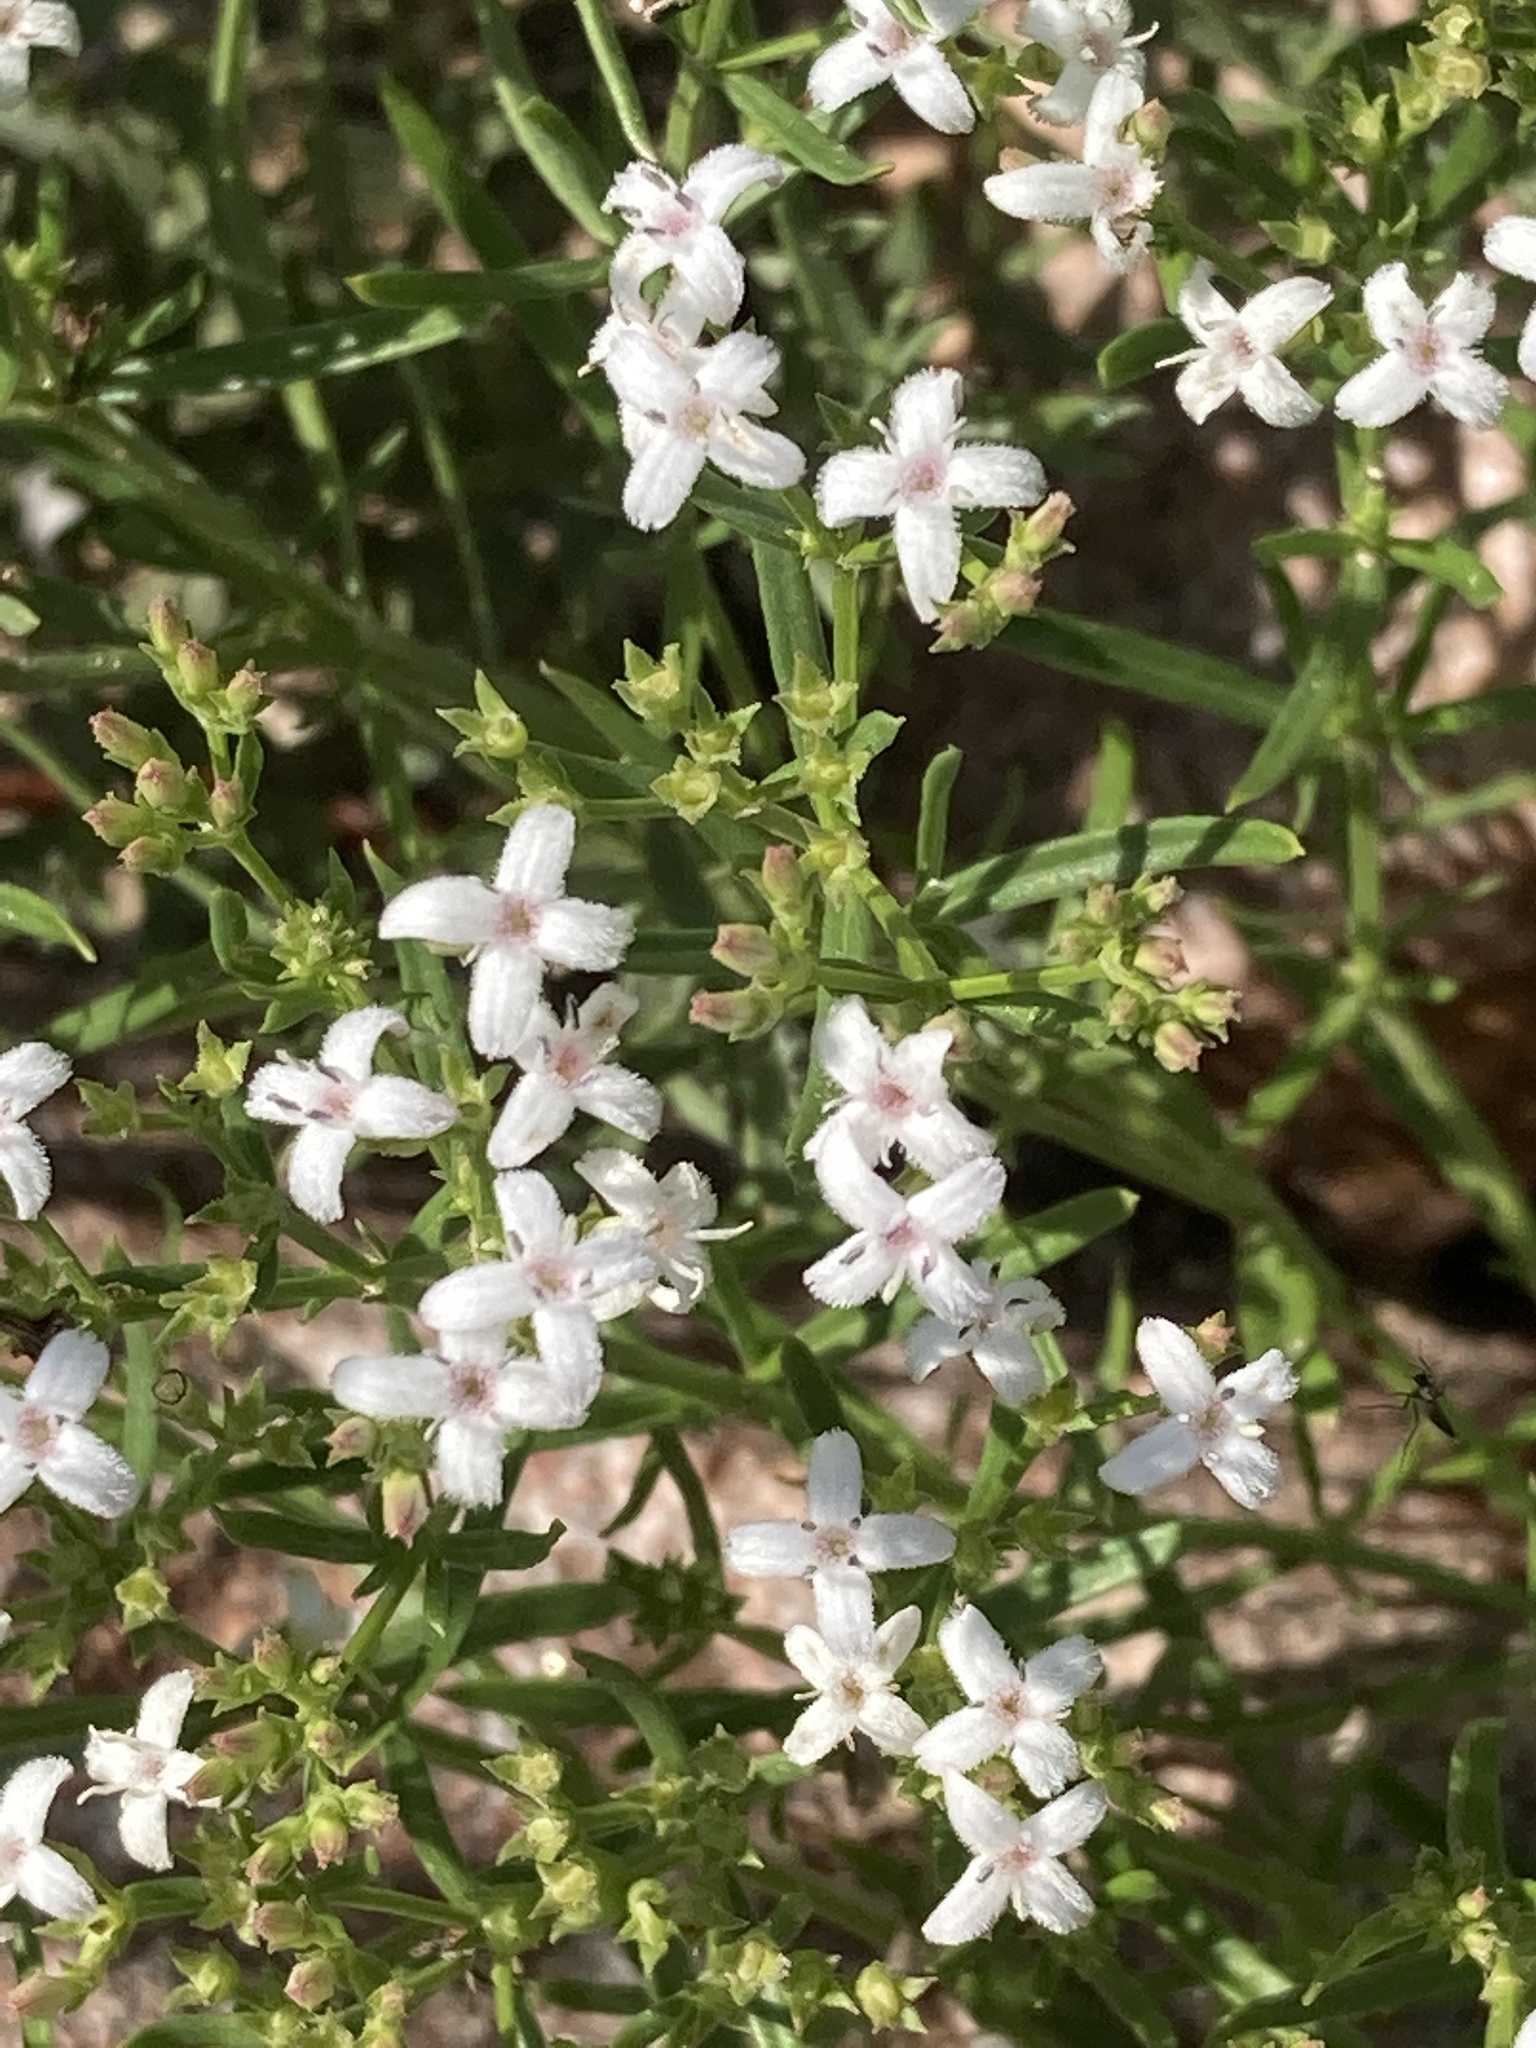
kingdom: Plantae
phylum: Tracheophyta
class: Magnoliopsida
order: Gentianales
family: Rubiaceae
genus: Stenaria
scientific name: Stenaria nigricans
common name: Diamondflowers
